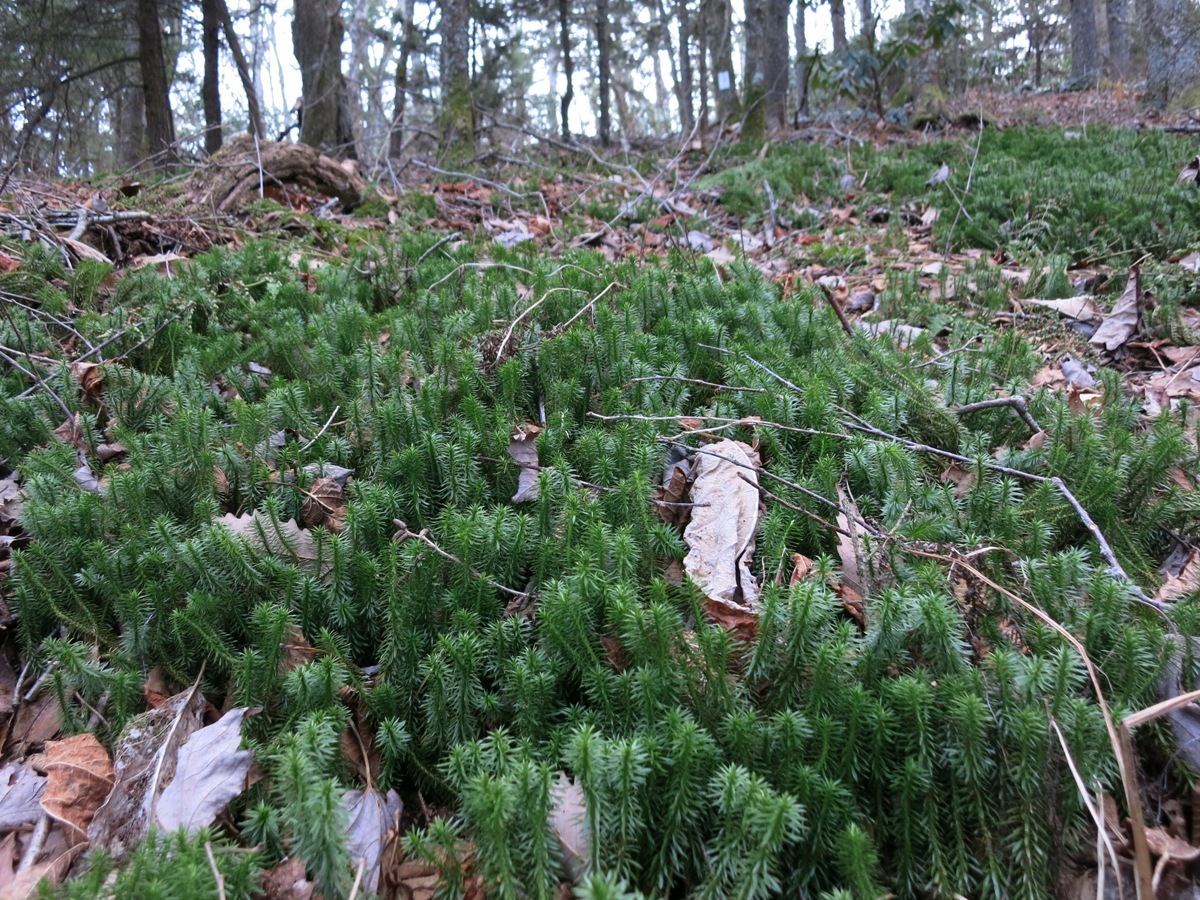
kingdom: Plantae
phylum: Tracheophyta
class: Lycopodiopsida
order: Lycopodiales
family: Lycopodiaceae
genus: Huperzia
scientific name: Huperzia lucidula
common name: Shining clubmoss
